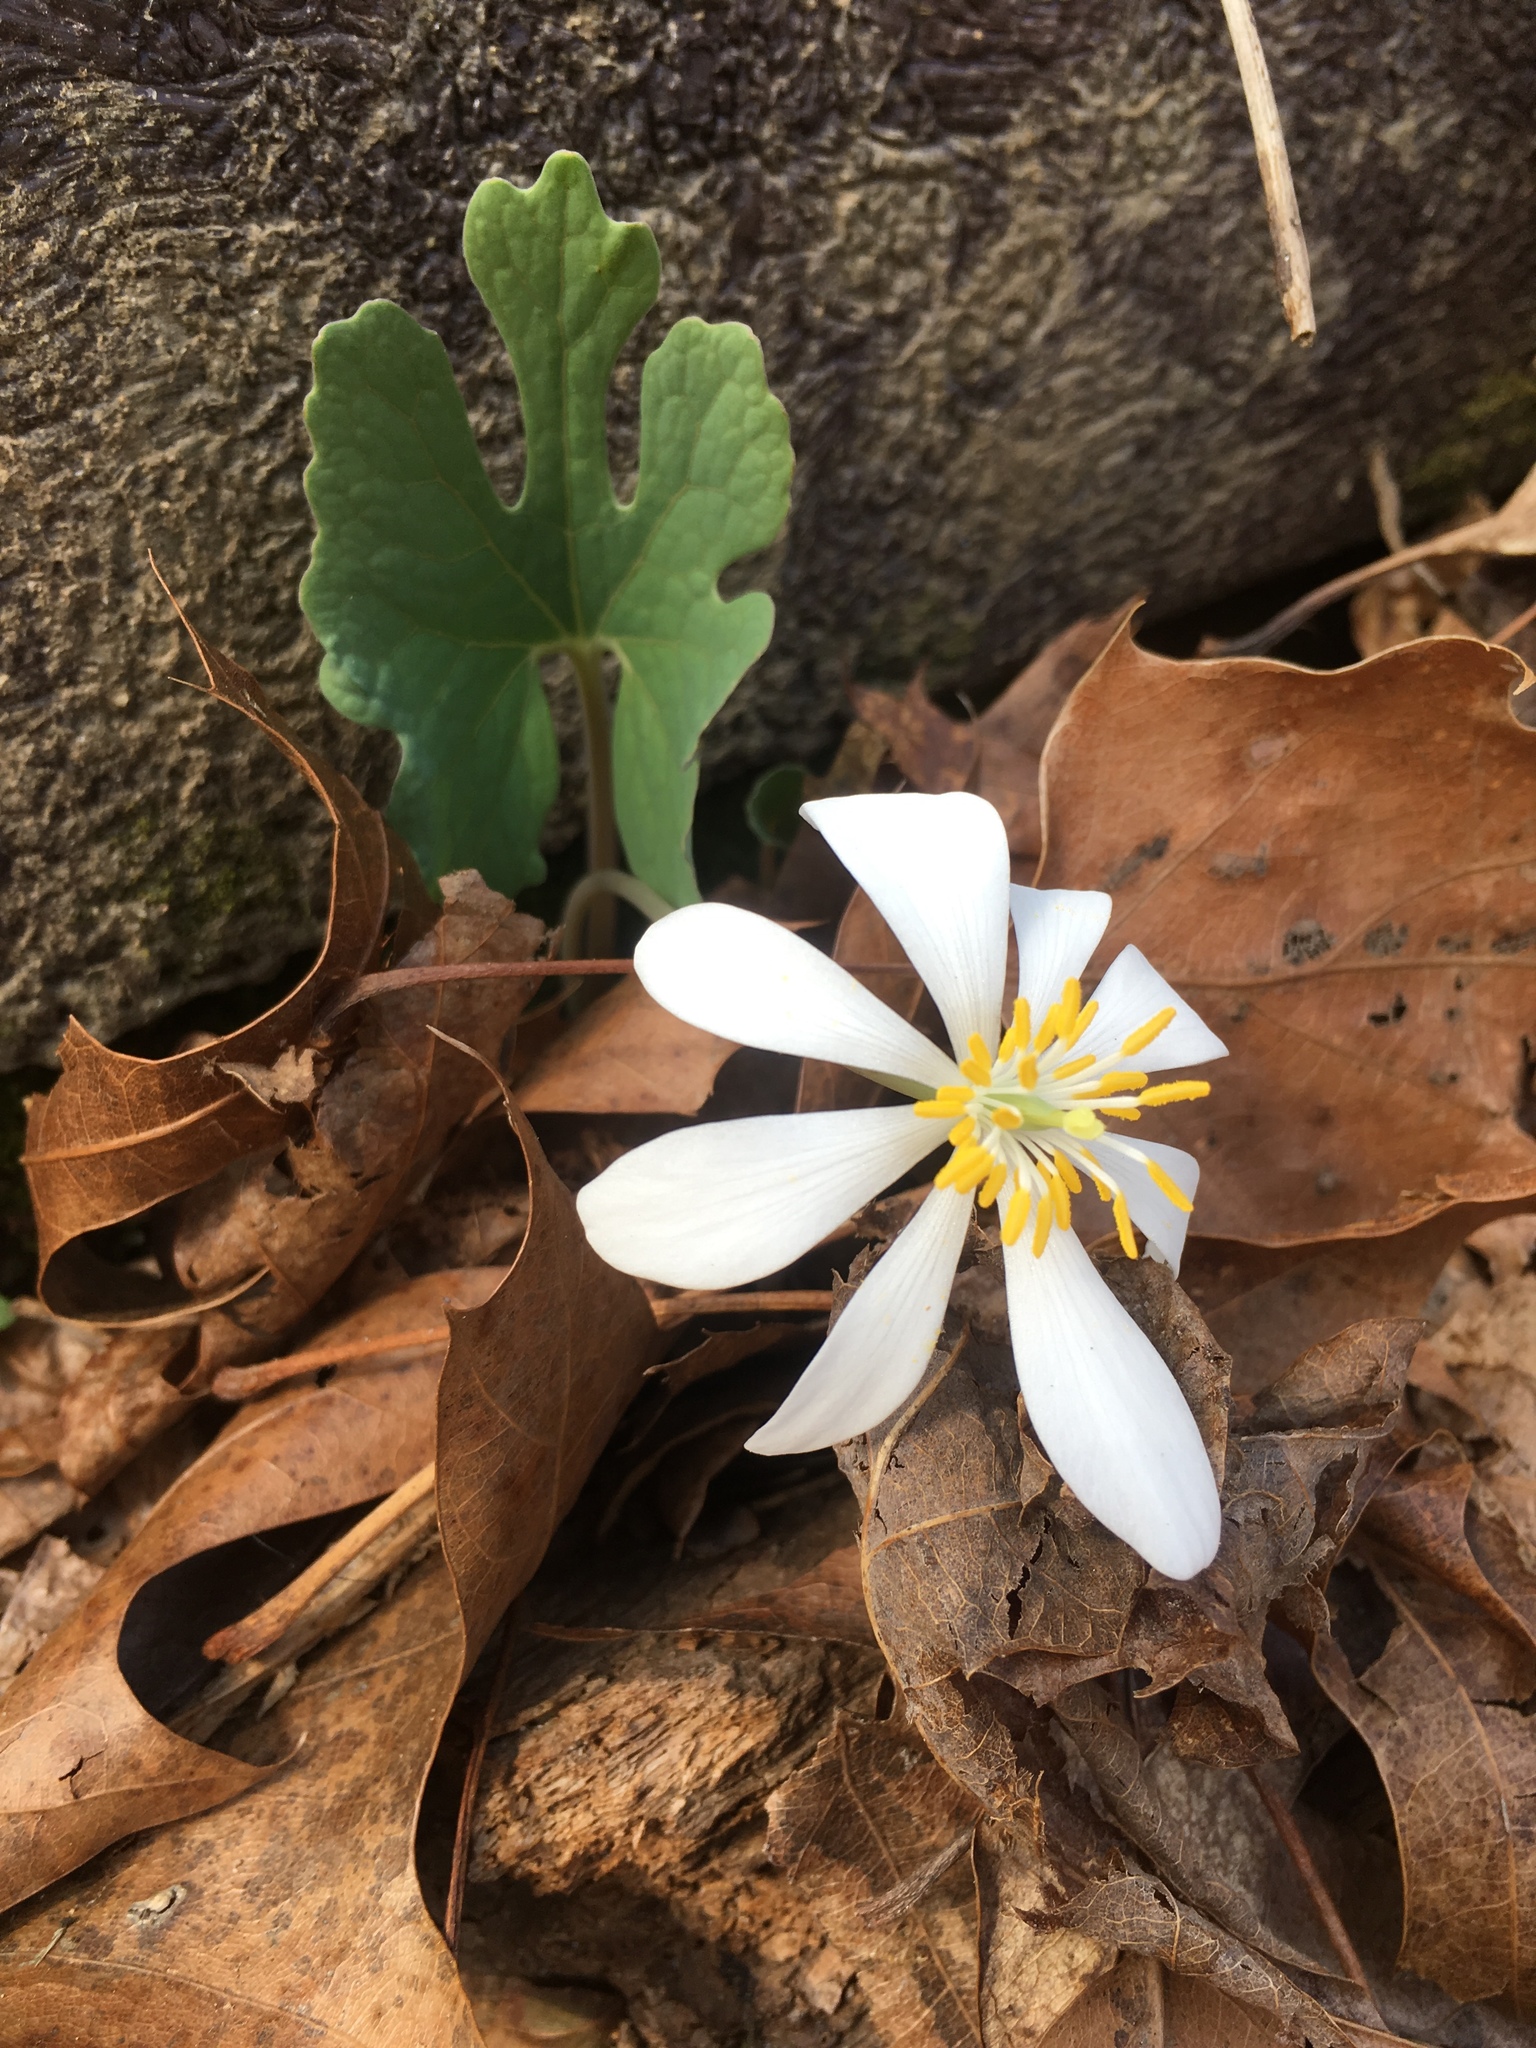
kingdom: Plantae
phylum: Tracheophyta
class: Magnoliopsida
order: Ranunculales
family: Papaveraceae
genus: Sanguinaria
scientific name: Sanguinaria canadensis
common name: Bloodroot
